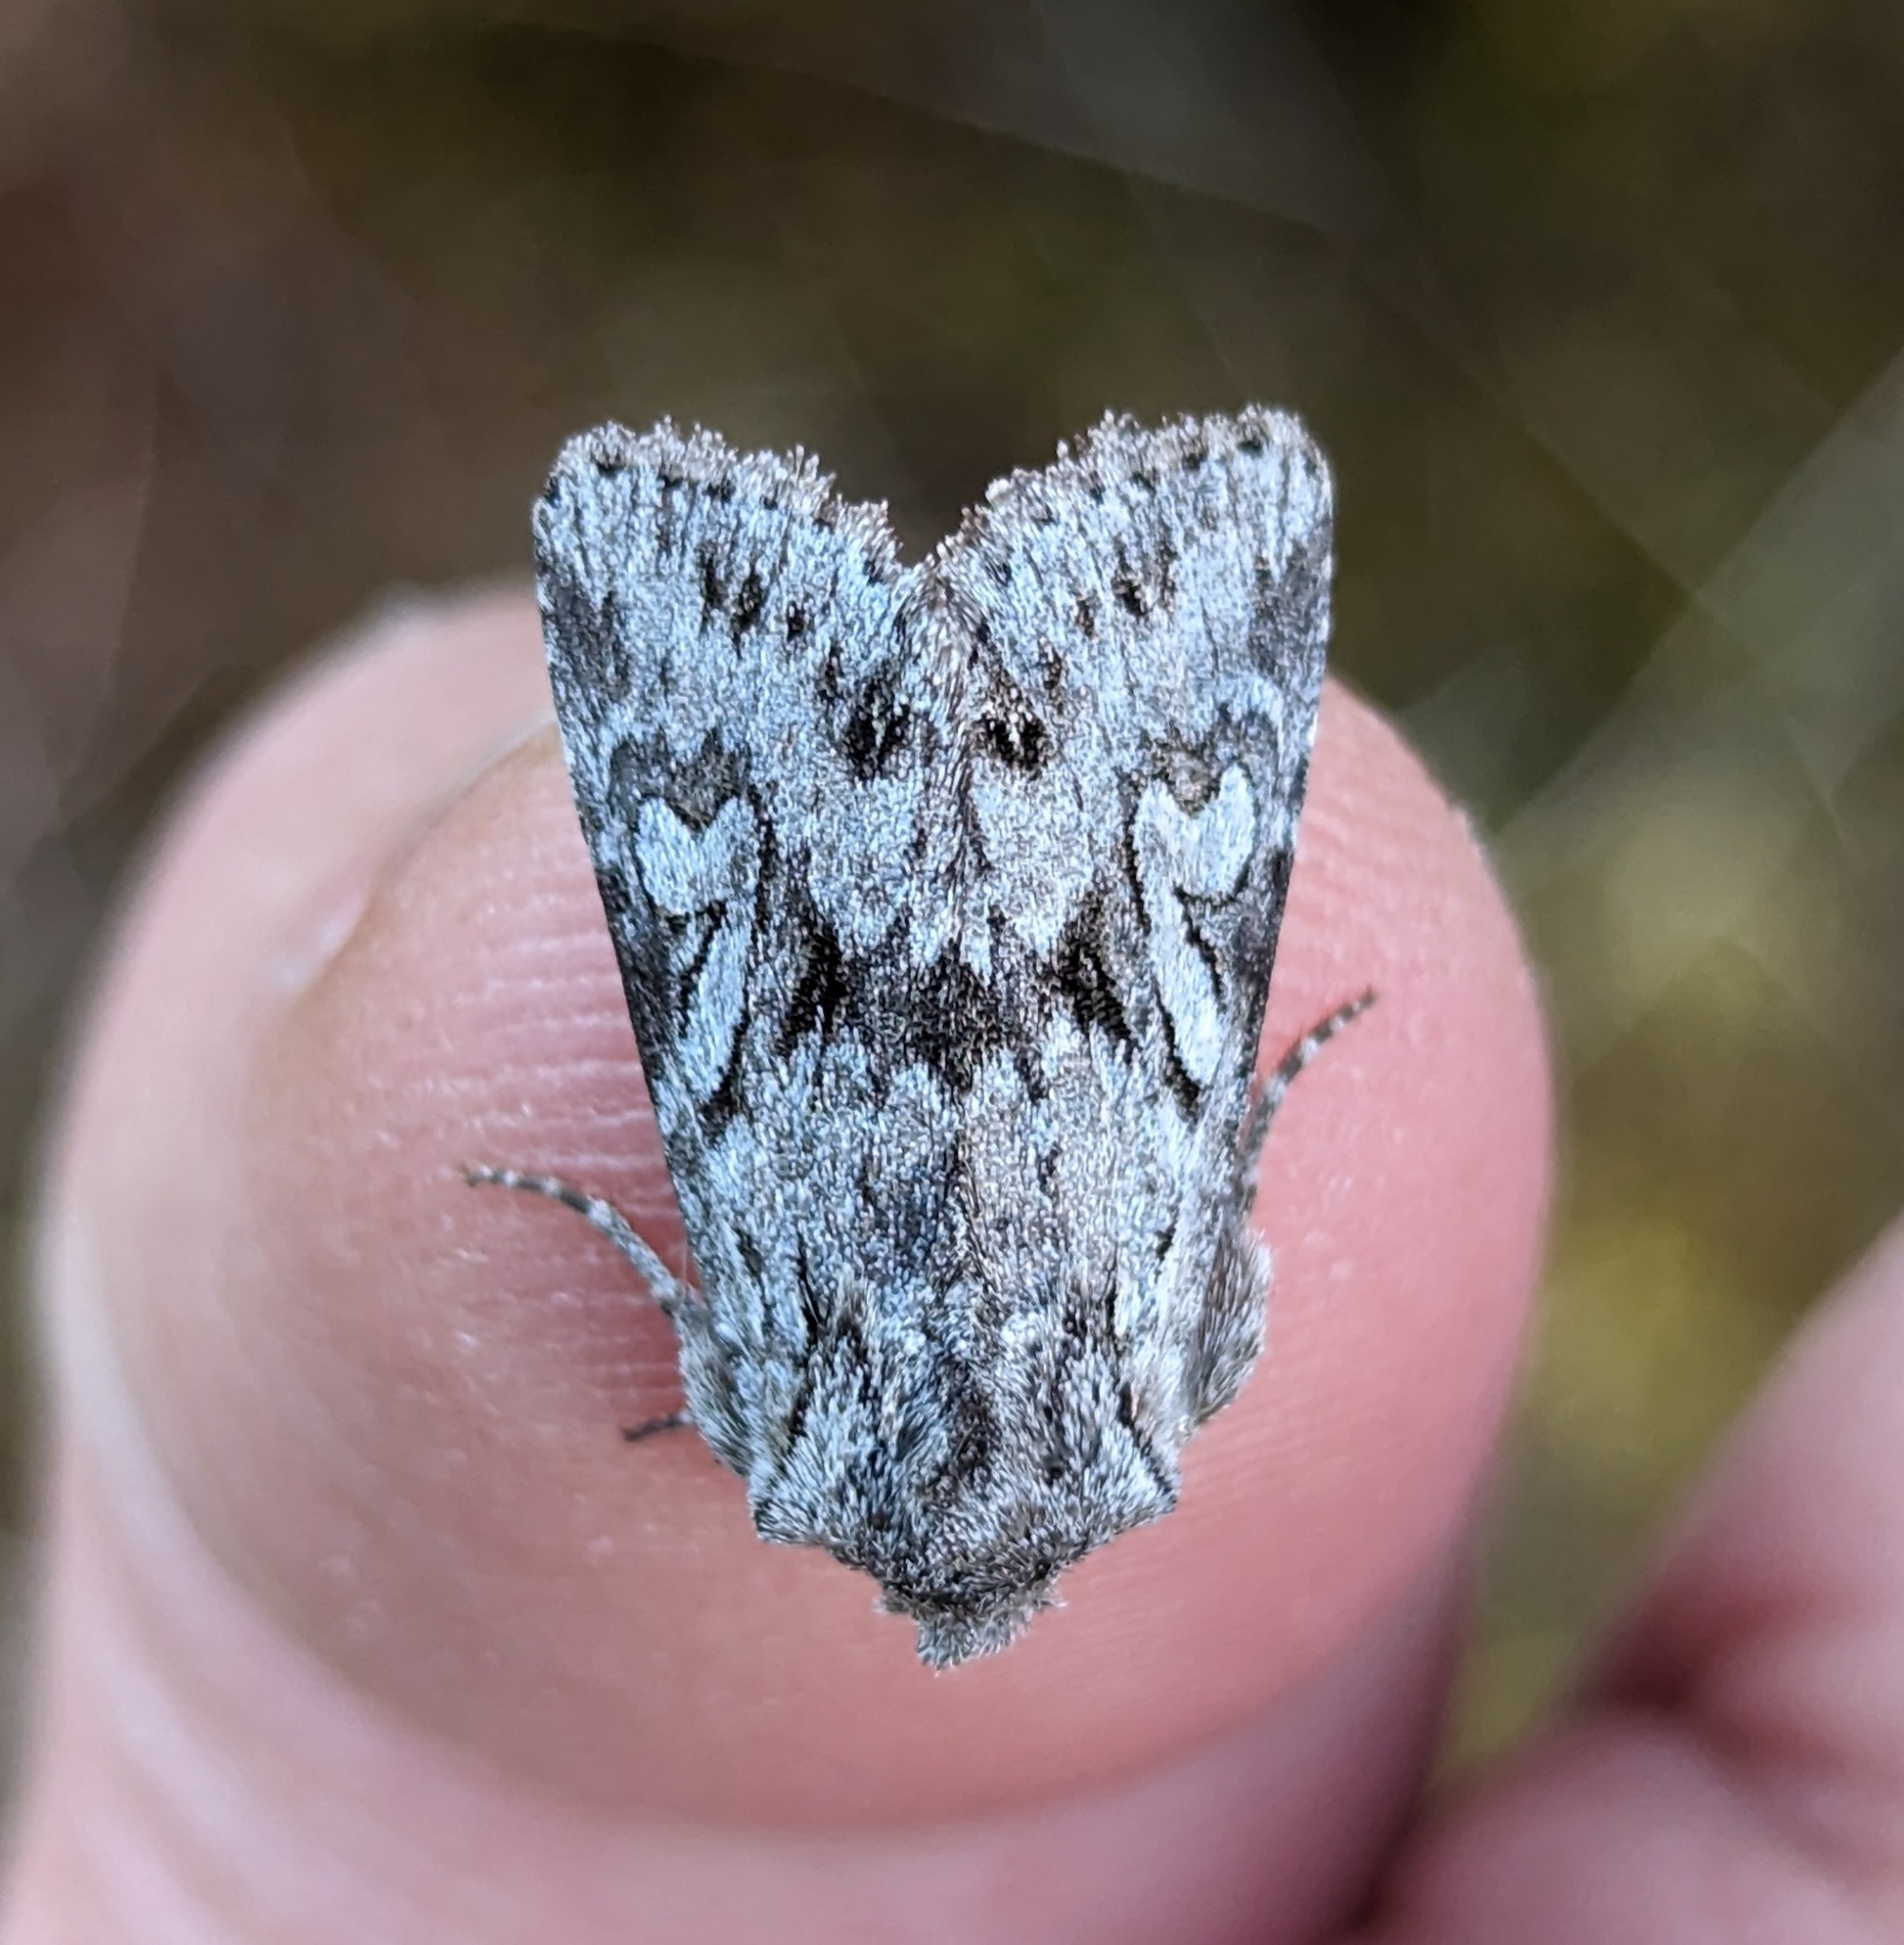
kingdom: Animalia
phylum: Arthropoda
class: Insecta
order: Lepidoptera
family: Noctuidae
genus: Lacinipolia
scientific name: Lacinipolia patalis
